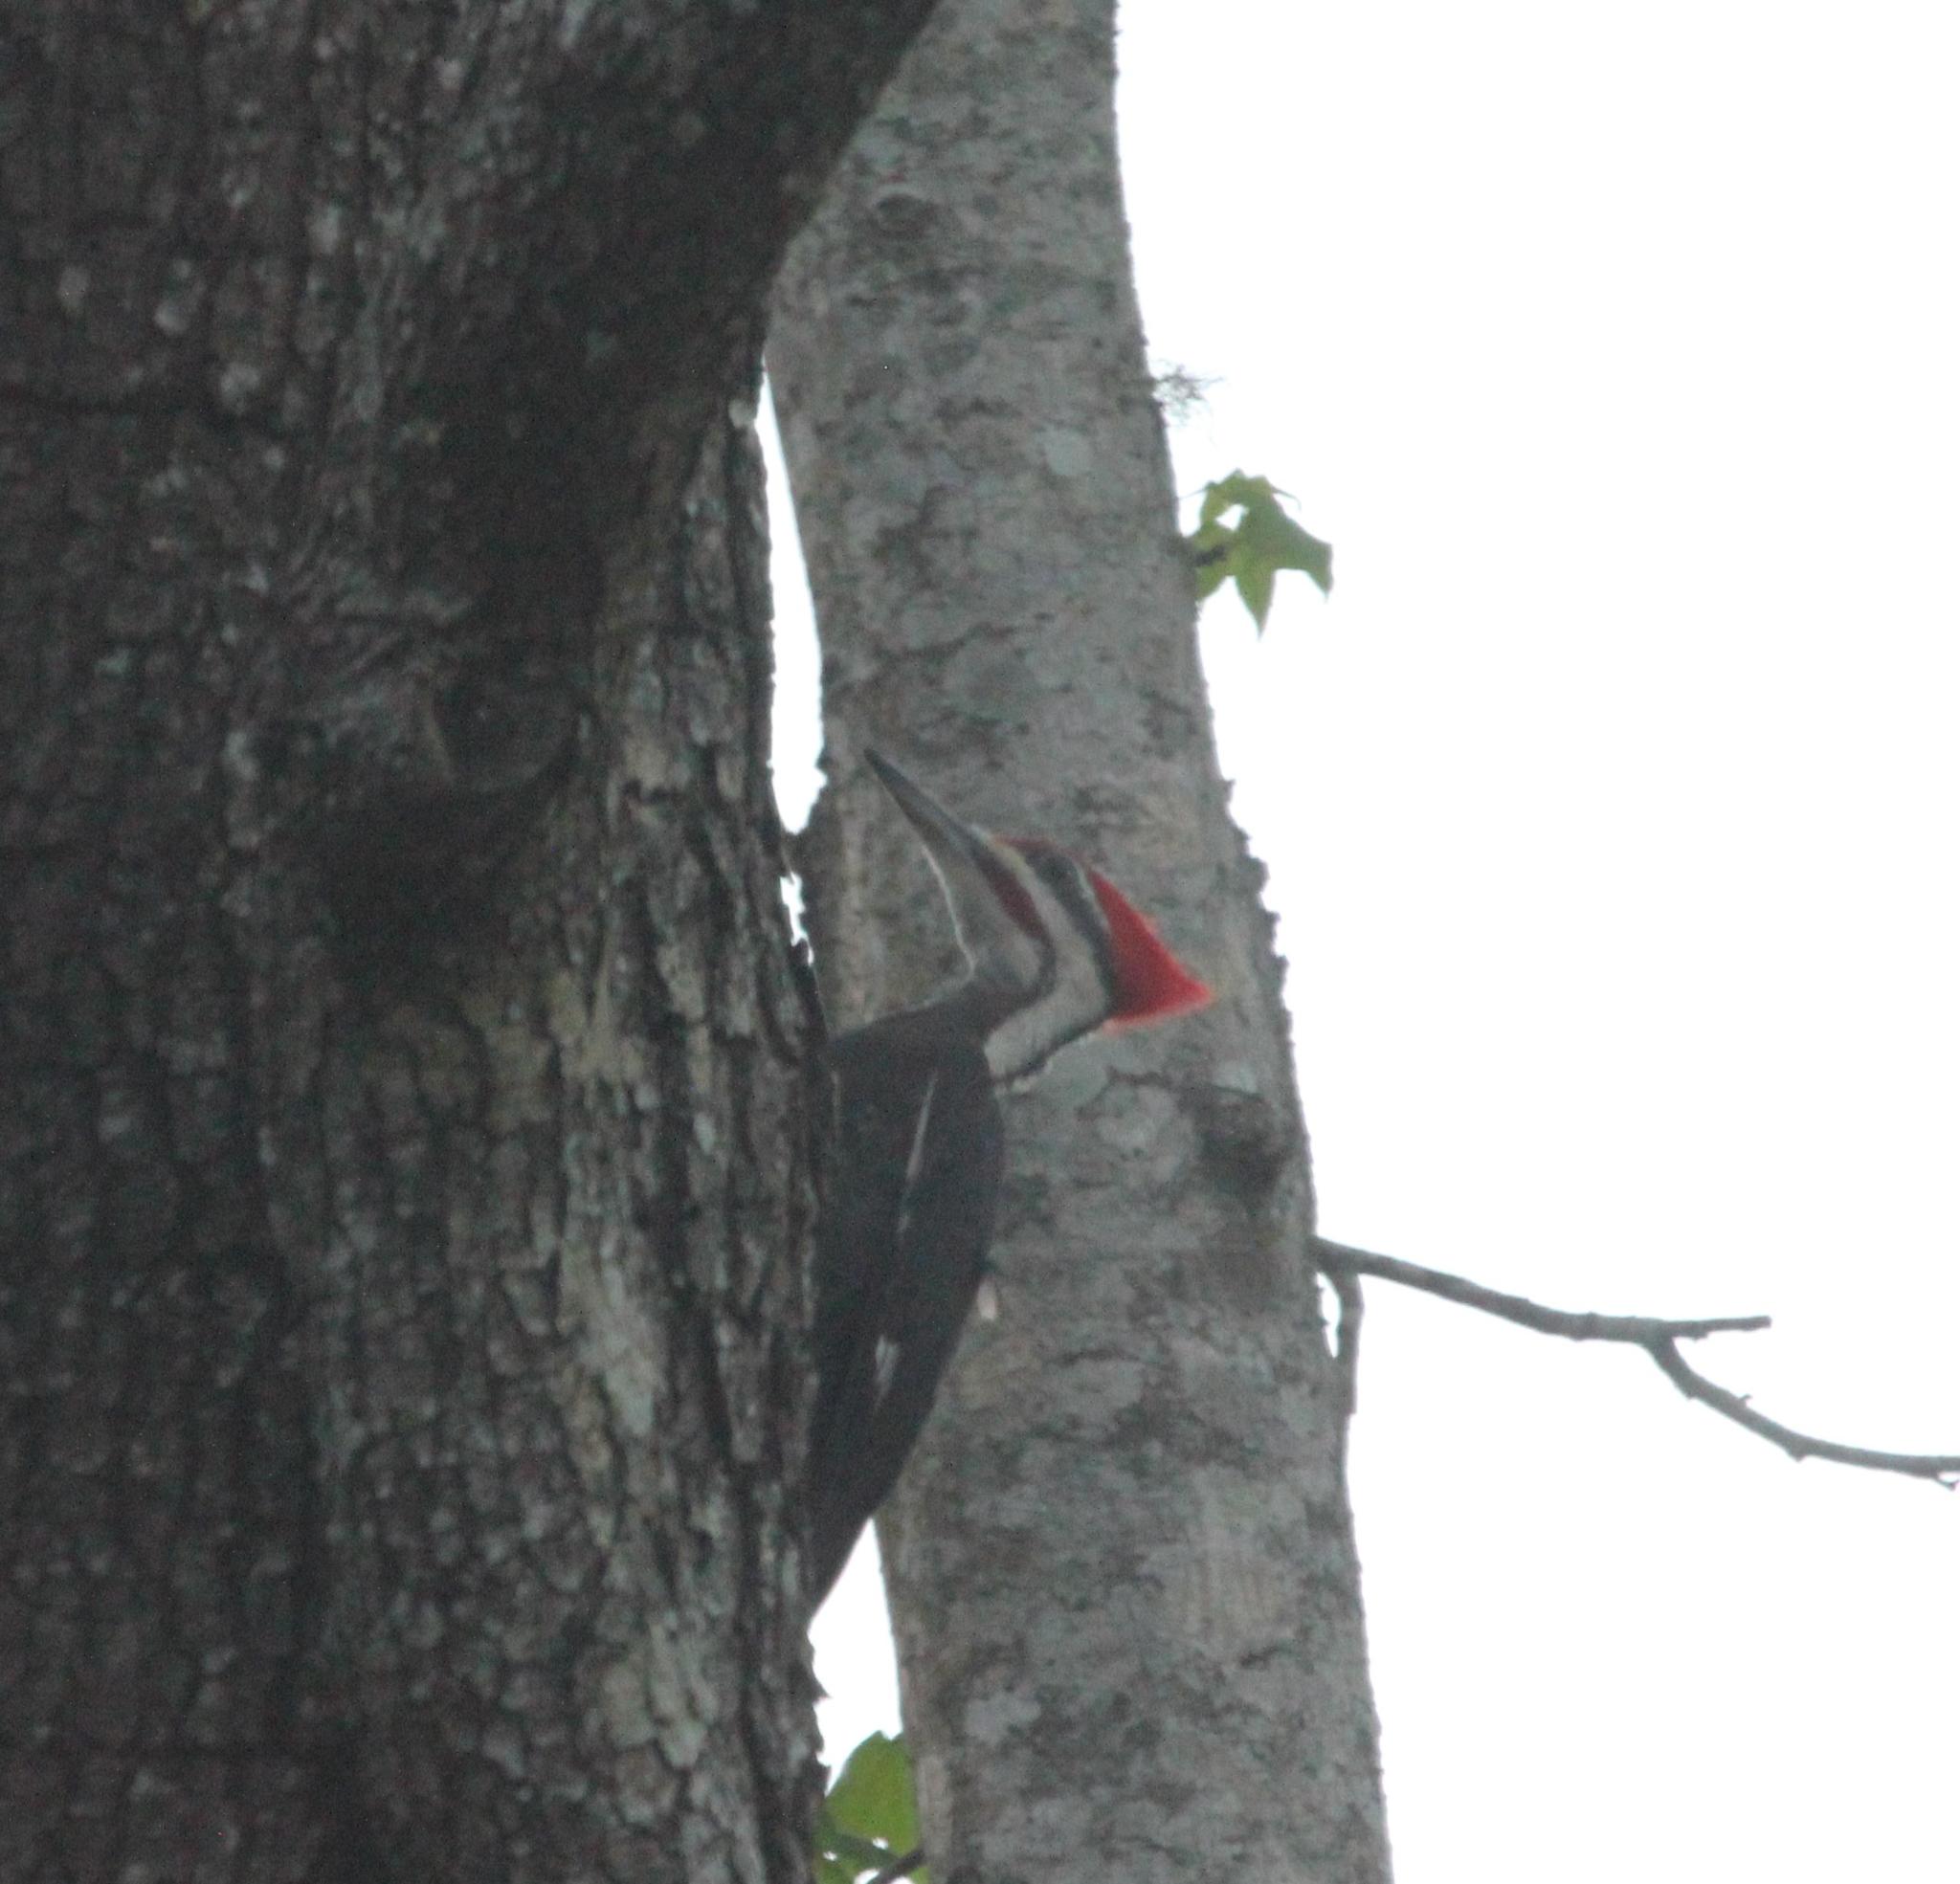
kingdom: Animalia
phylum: Chordata
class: Aves
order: Piciformes
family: Picidae
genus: Dryocopus
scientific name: Dryocopus pileatus
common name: Pileated woodpecker
